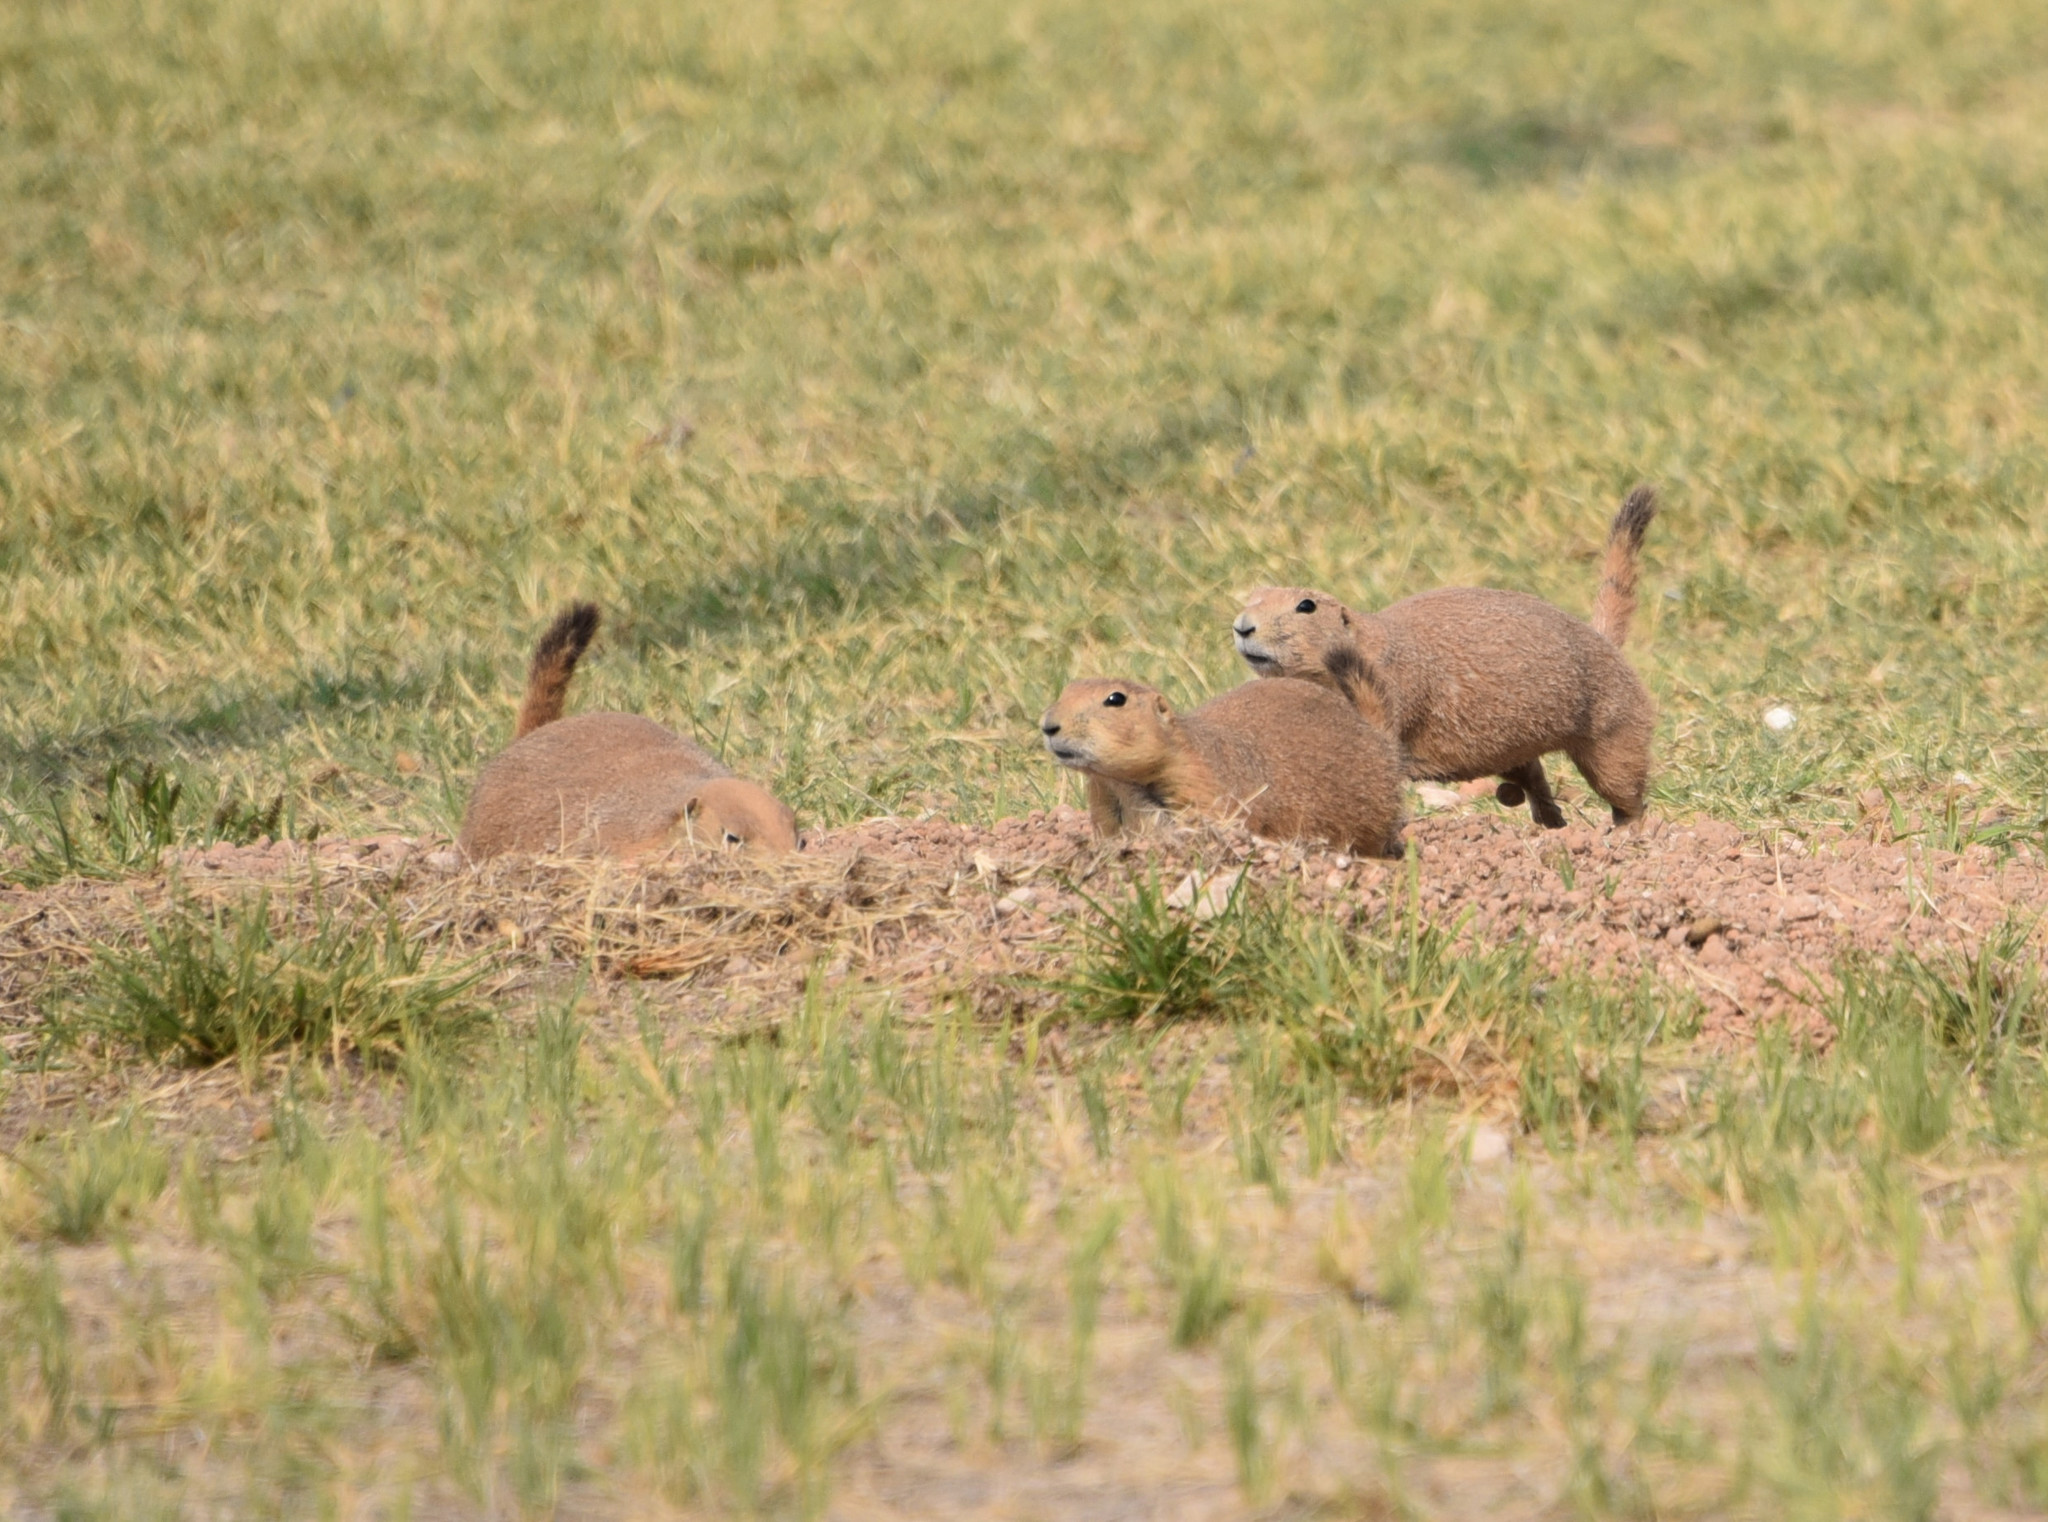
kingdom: Animalia
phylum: Chordata
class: Mammalia
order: Rodentia
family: Sciuridae
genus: Cynomys
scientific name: Cynomys ludovicianus
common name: Black-tailed prairie dog
